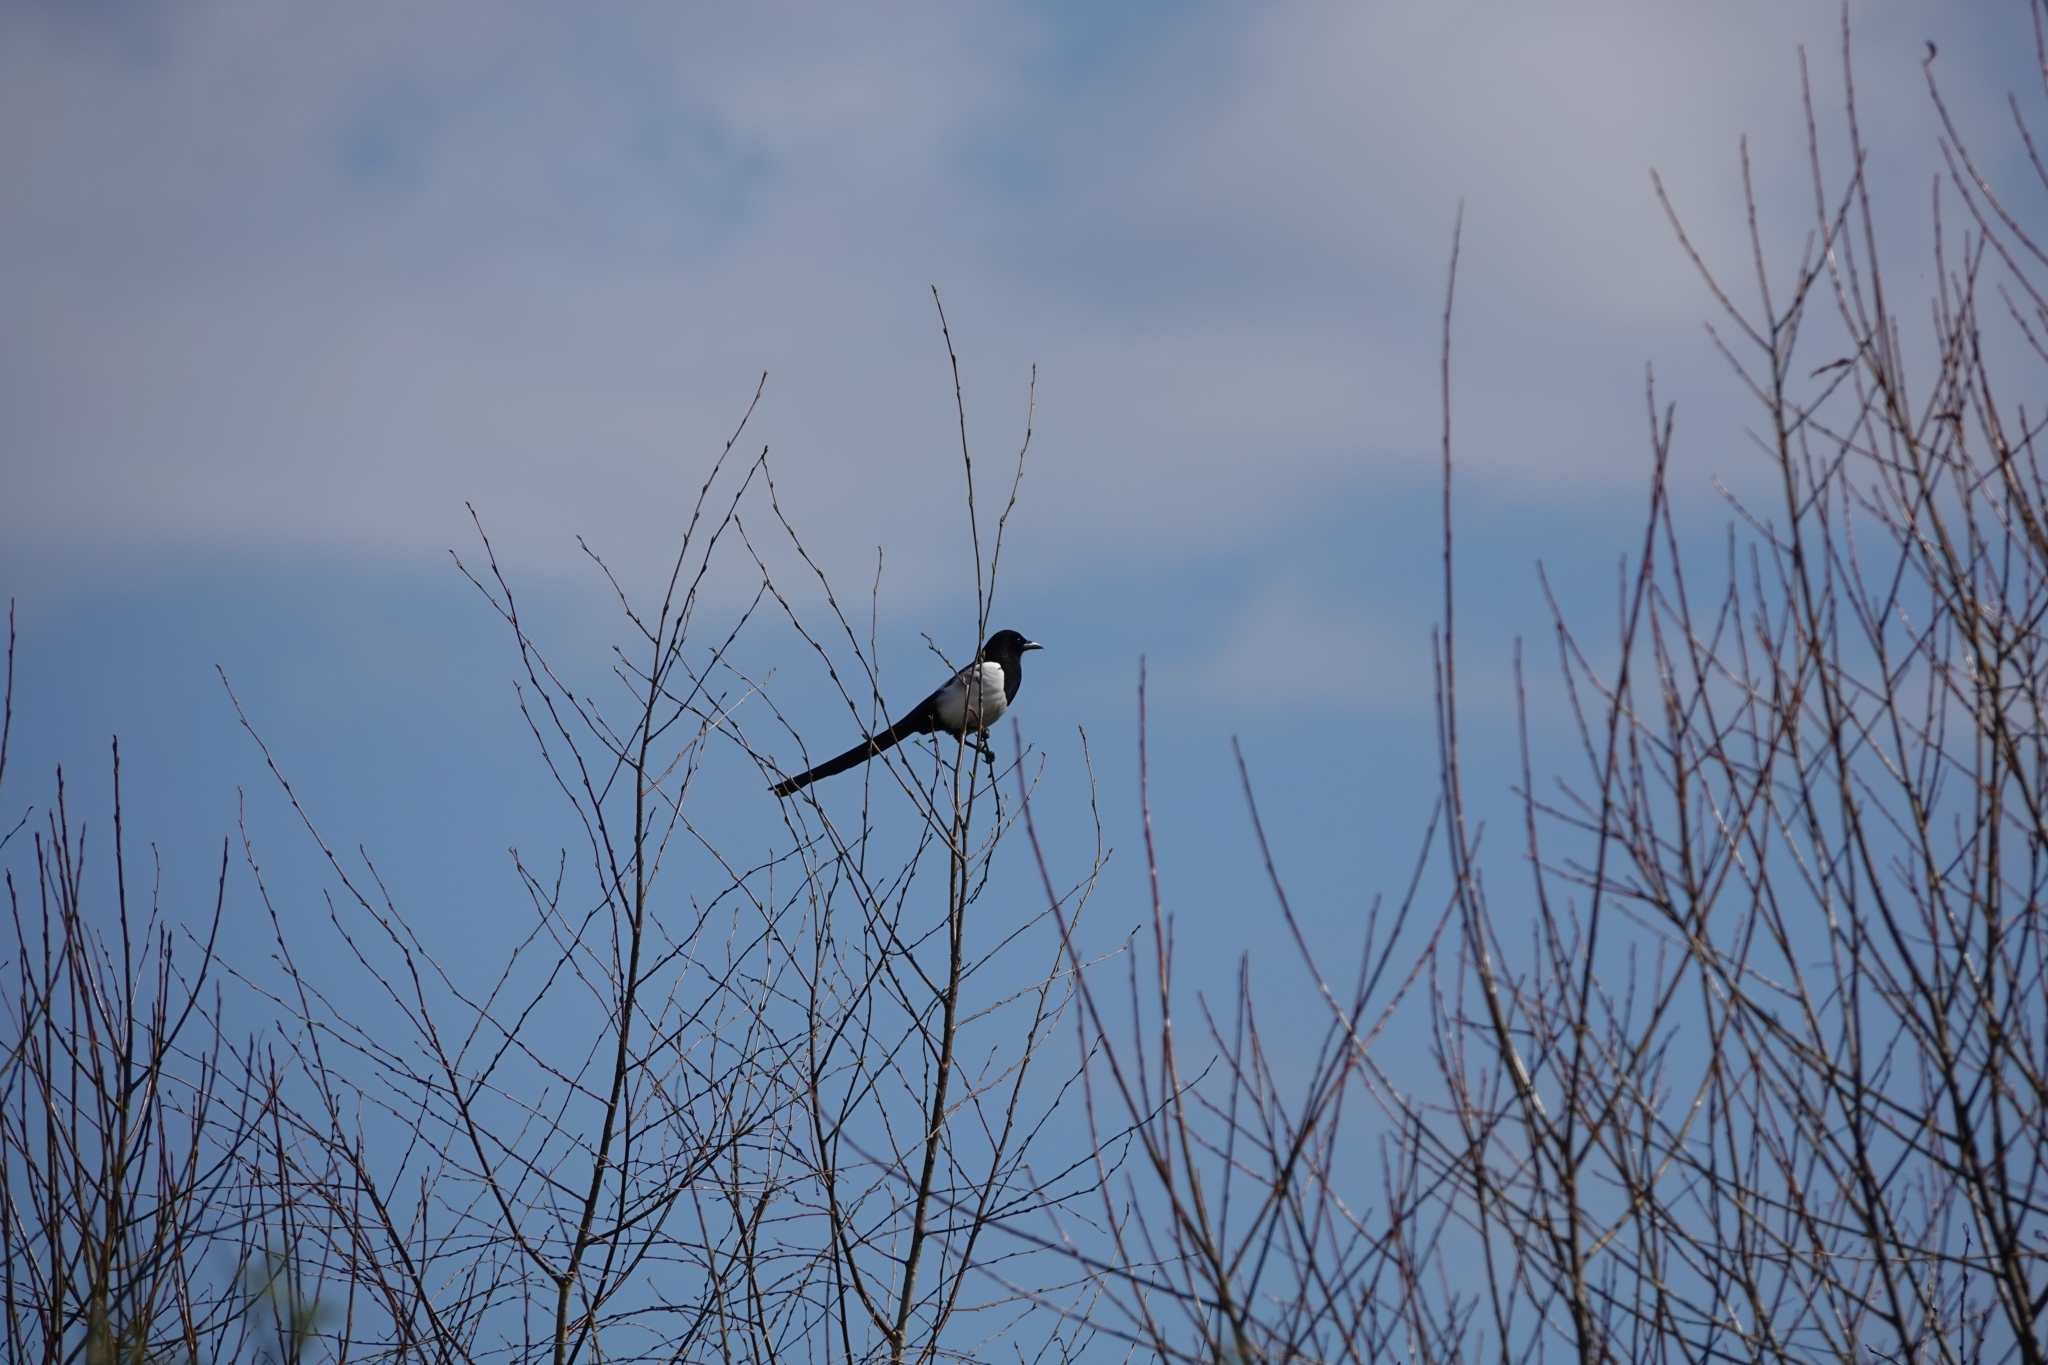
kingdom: Animalia
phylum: Chordata
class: Aves
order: Passeriformes
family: Corvidae
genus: Pica
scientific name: Pica pica
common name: Eurasian magpie
